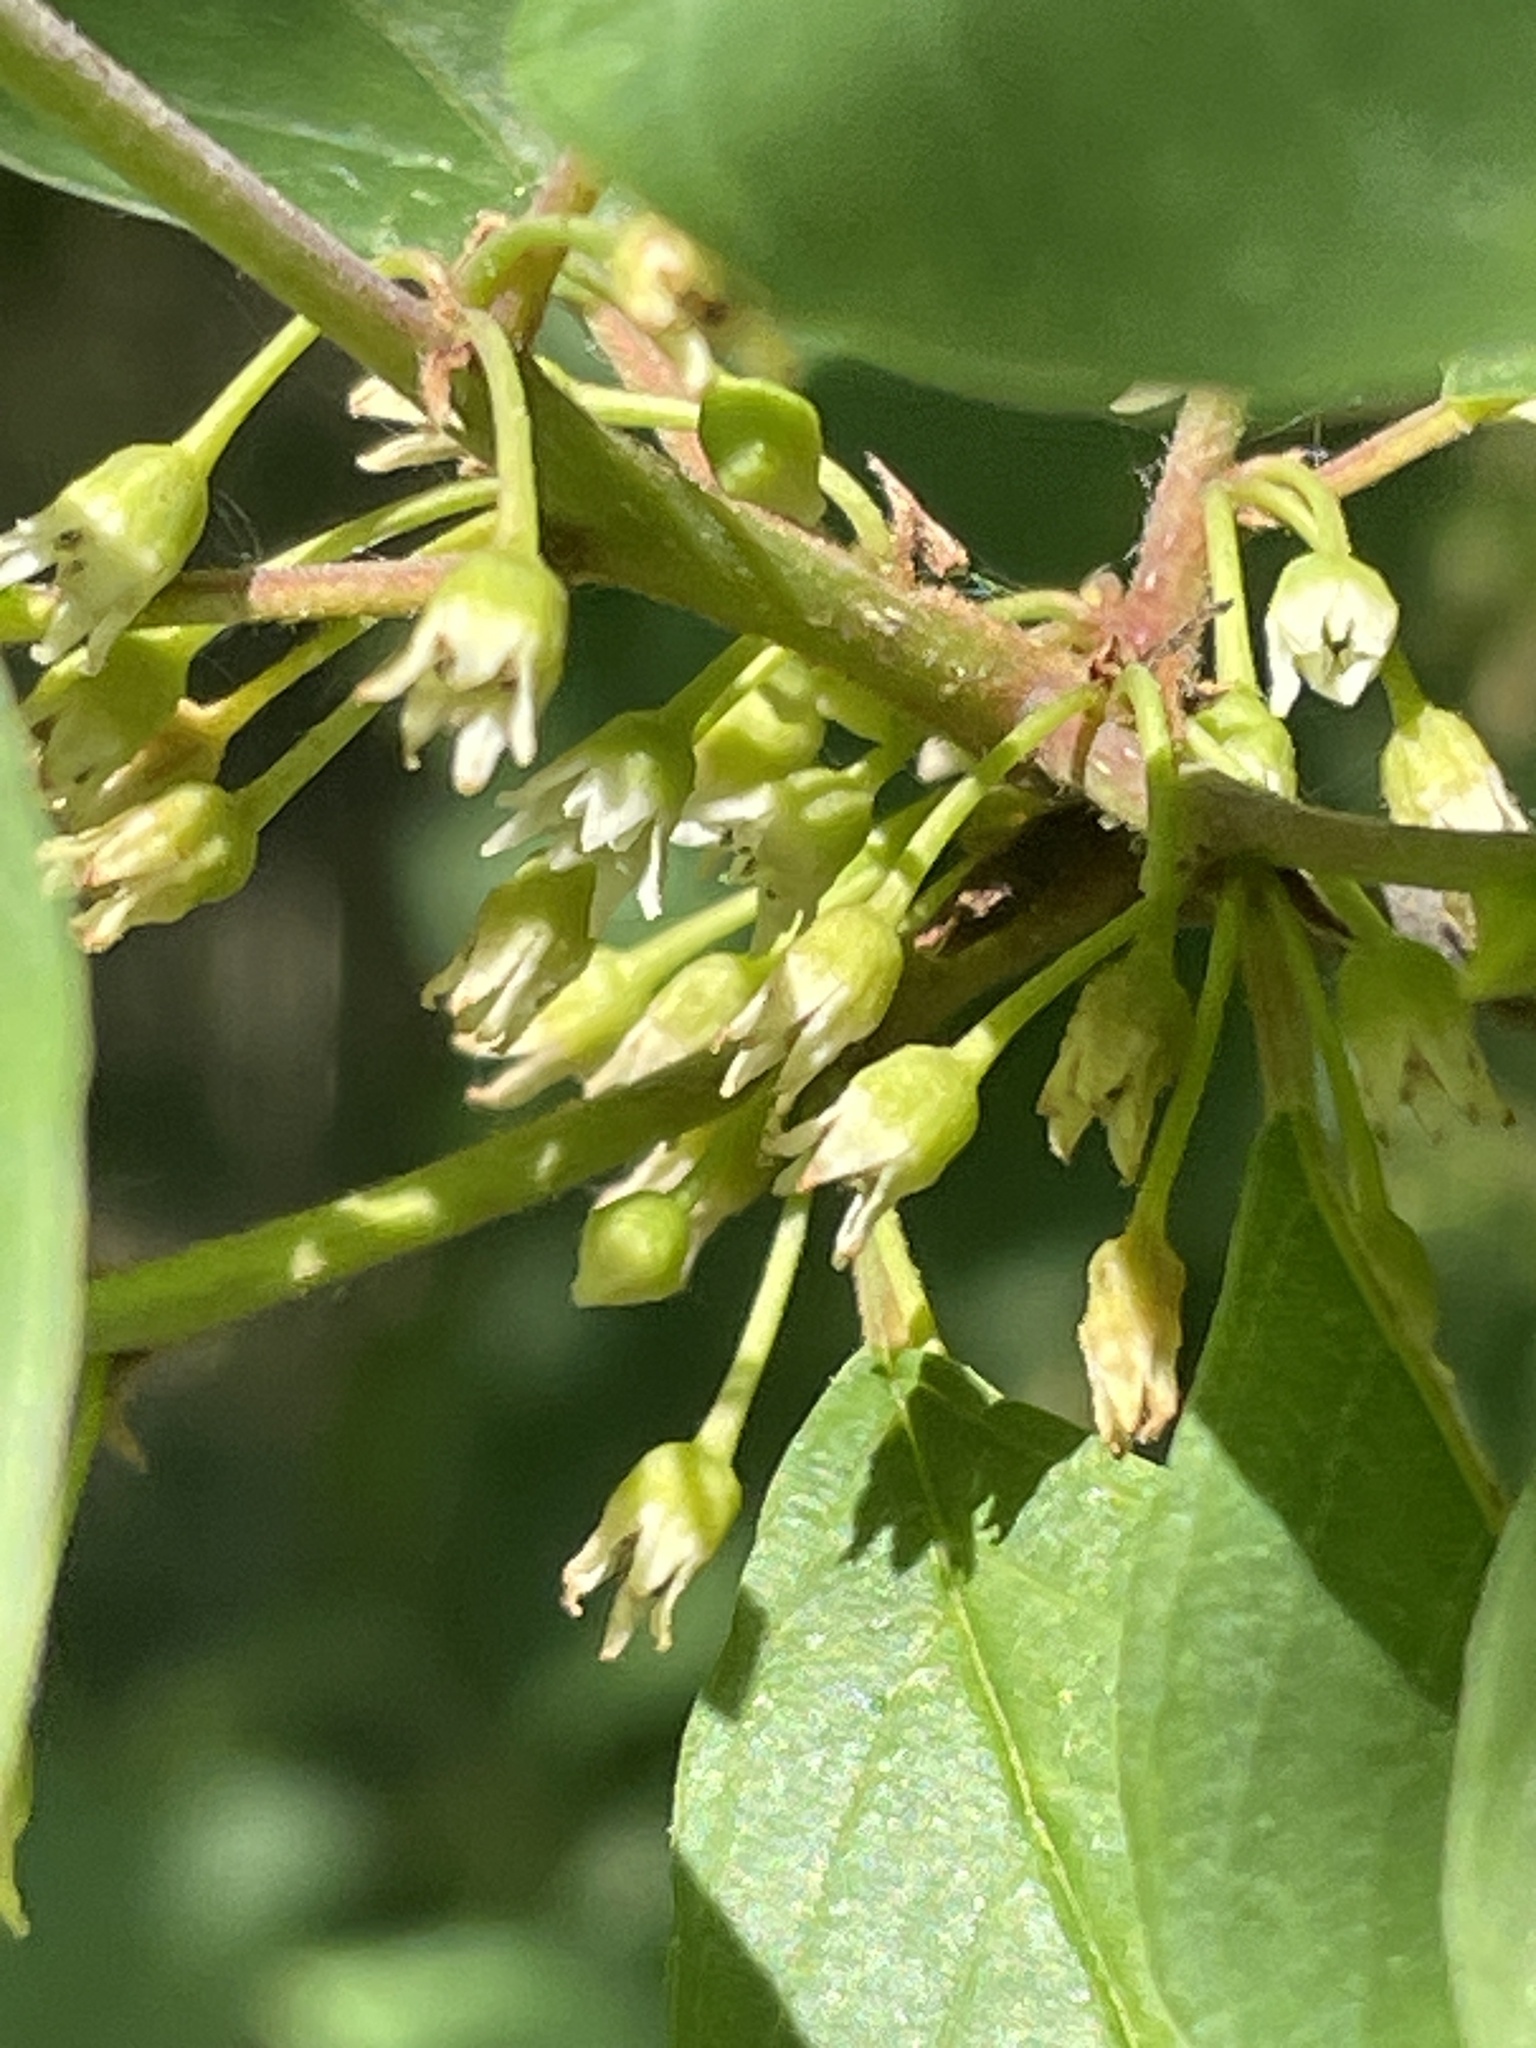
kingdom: Plantae
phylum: Tracheophyta
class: Magnoliopsida
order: Rosales
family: Rhamnaceae
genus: Frangula
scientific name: Frangula alnus
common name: Alder buckthorn
